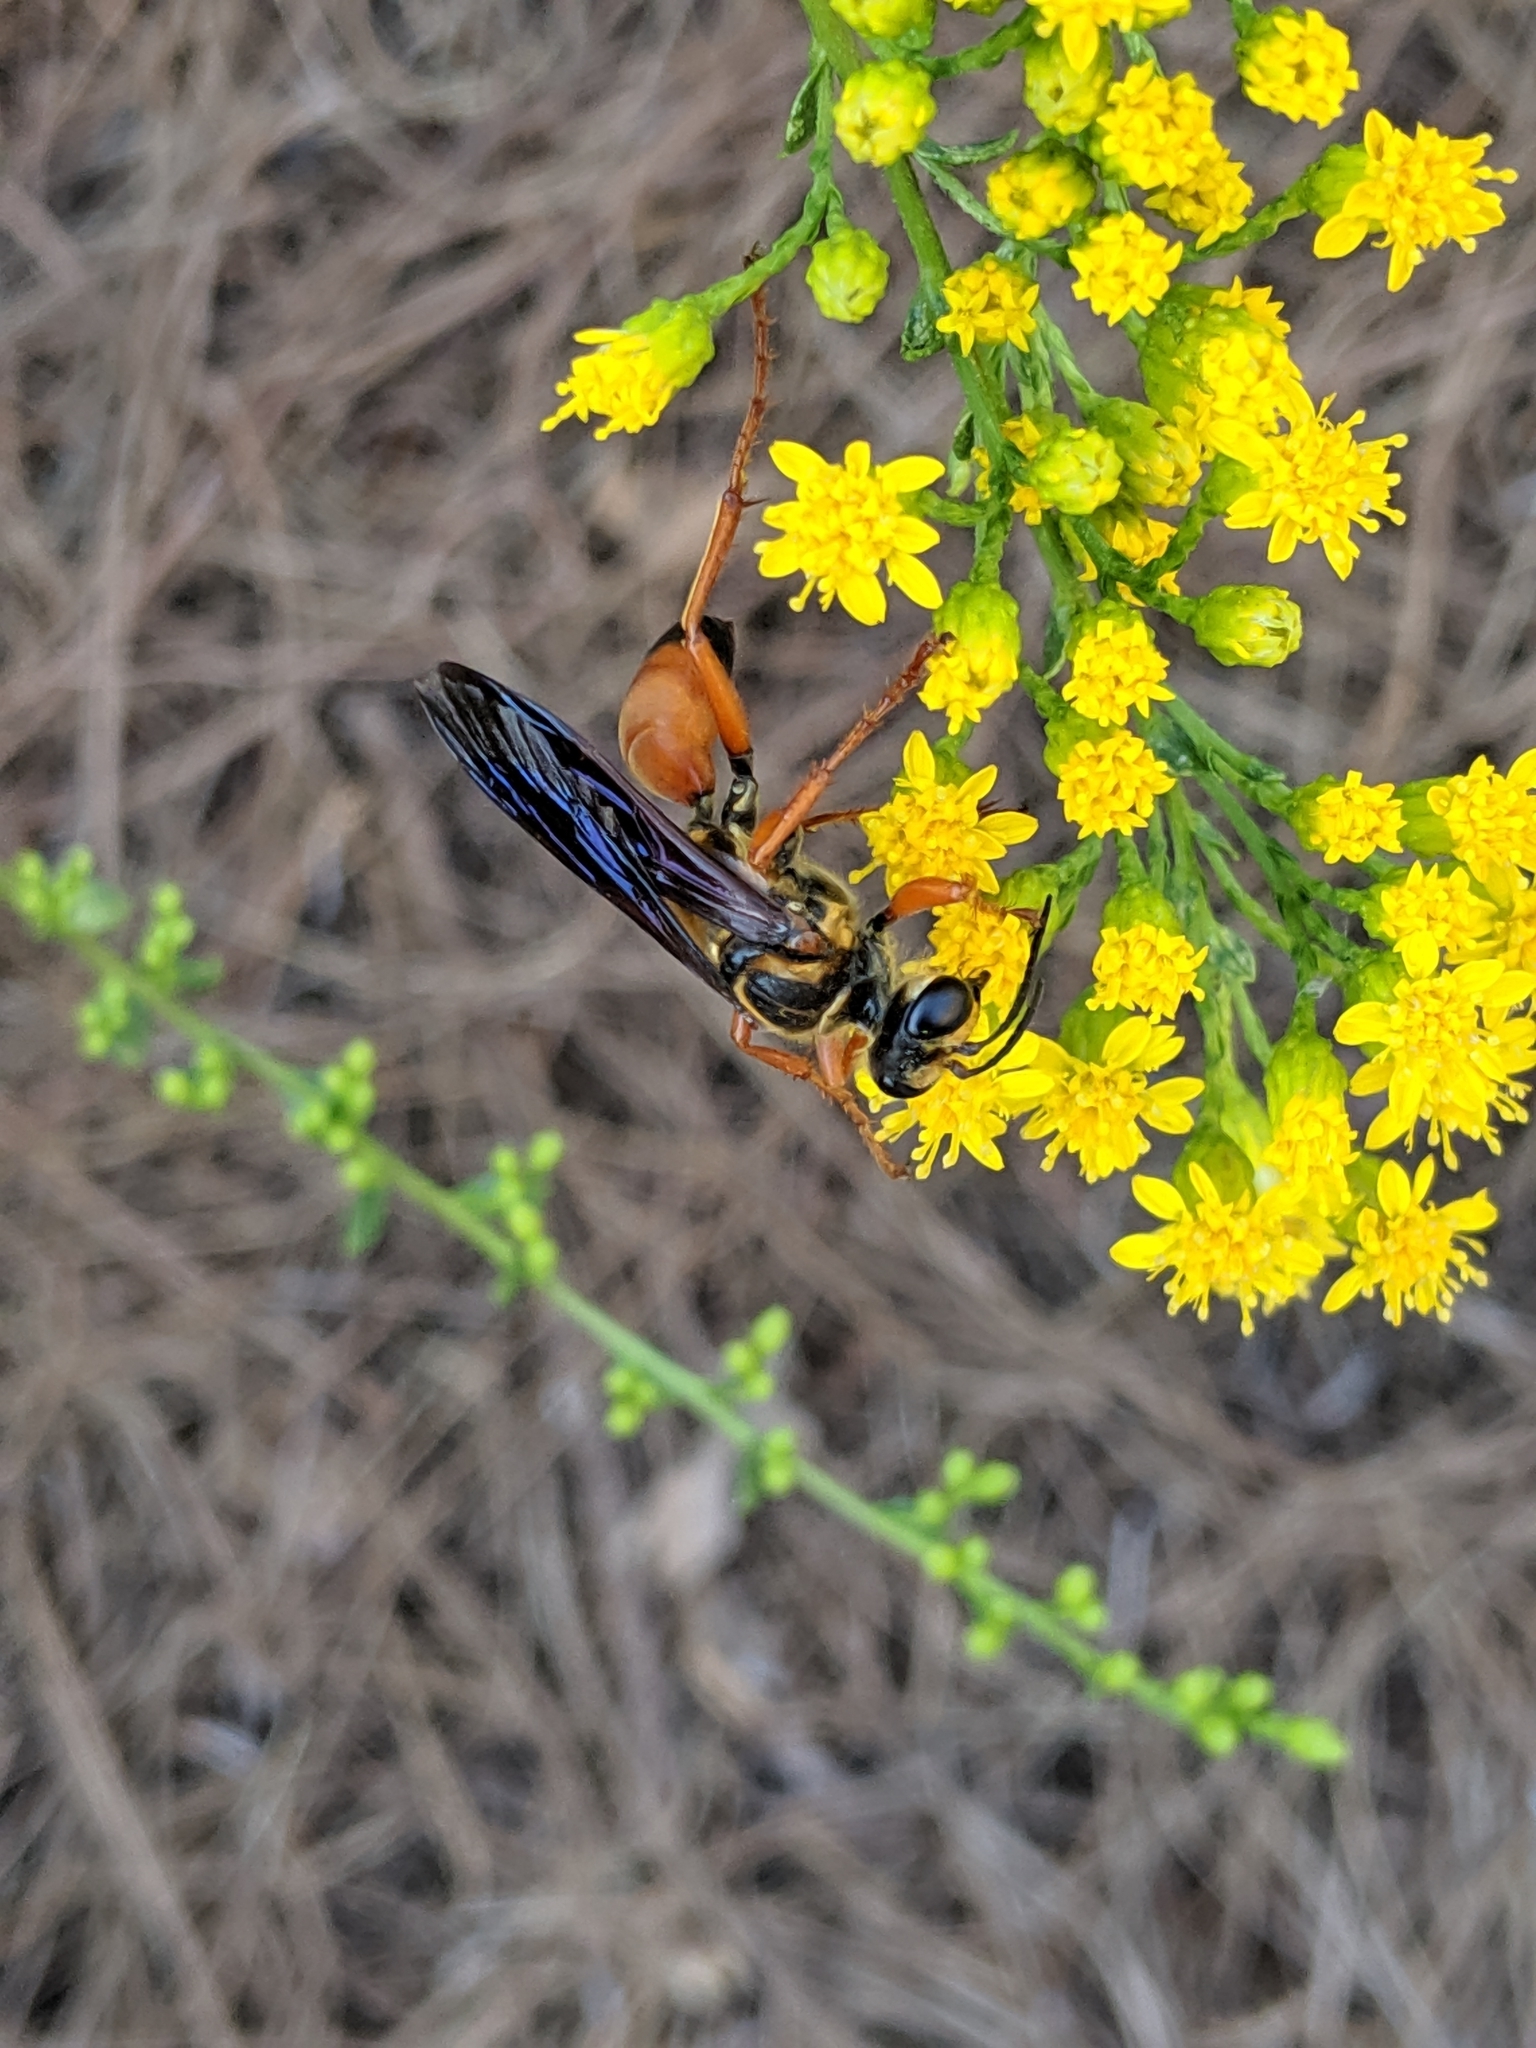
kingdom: Animalia
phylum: Arthropoda
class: Insecta
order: Hymenoptera
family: Sphecidae
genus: Sphex
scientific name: Sphex ichneumoneus
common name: Great golden digger wasp
